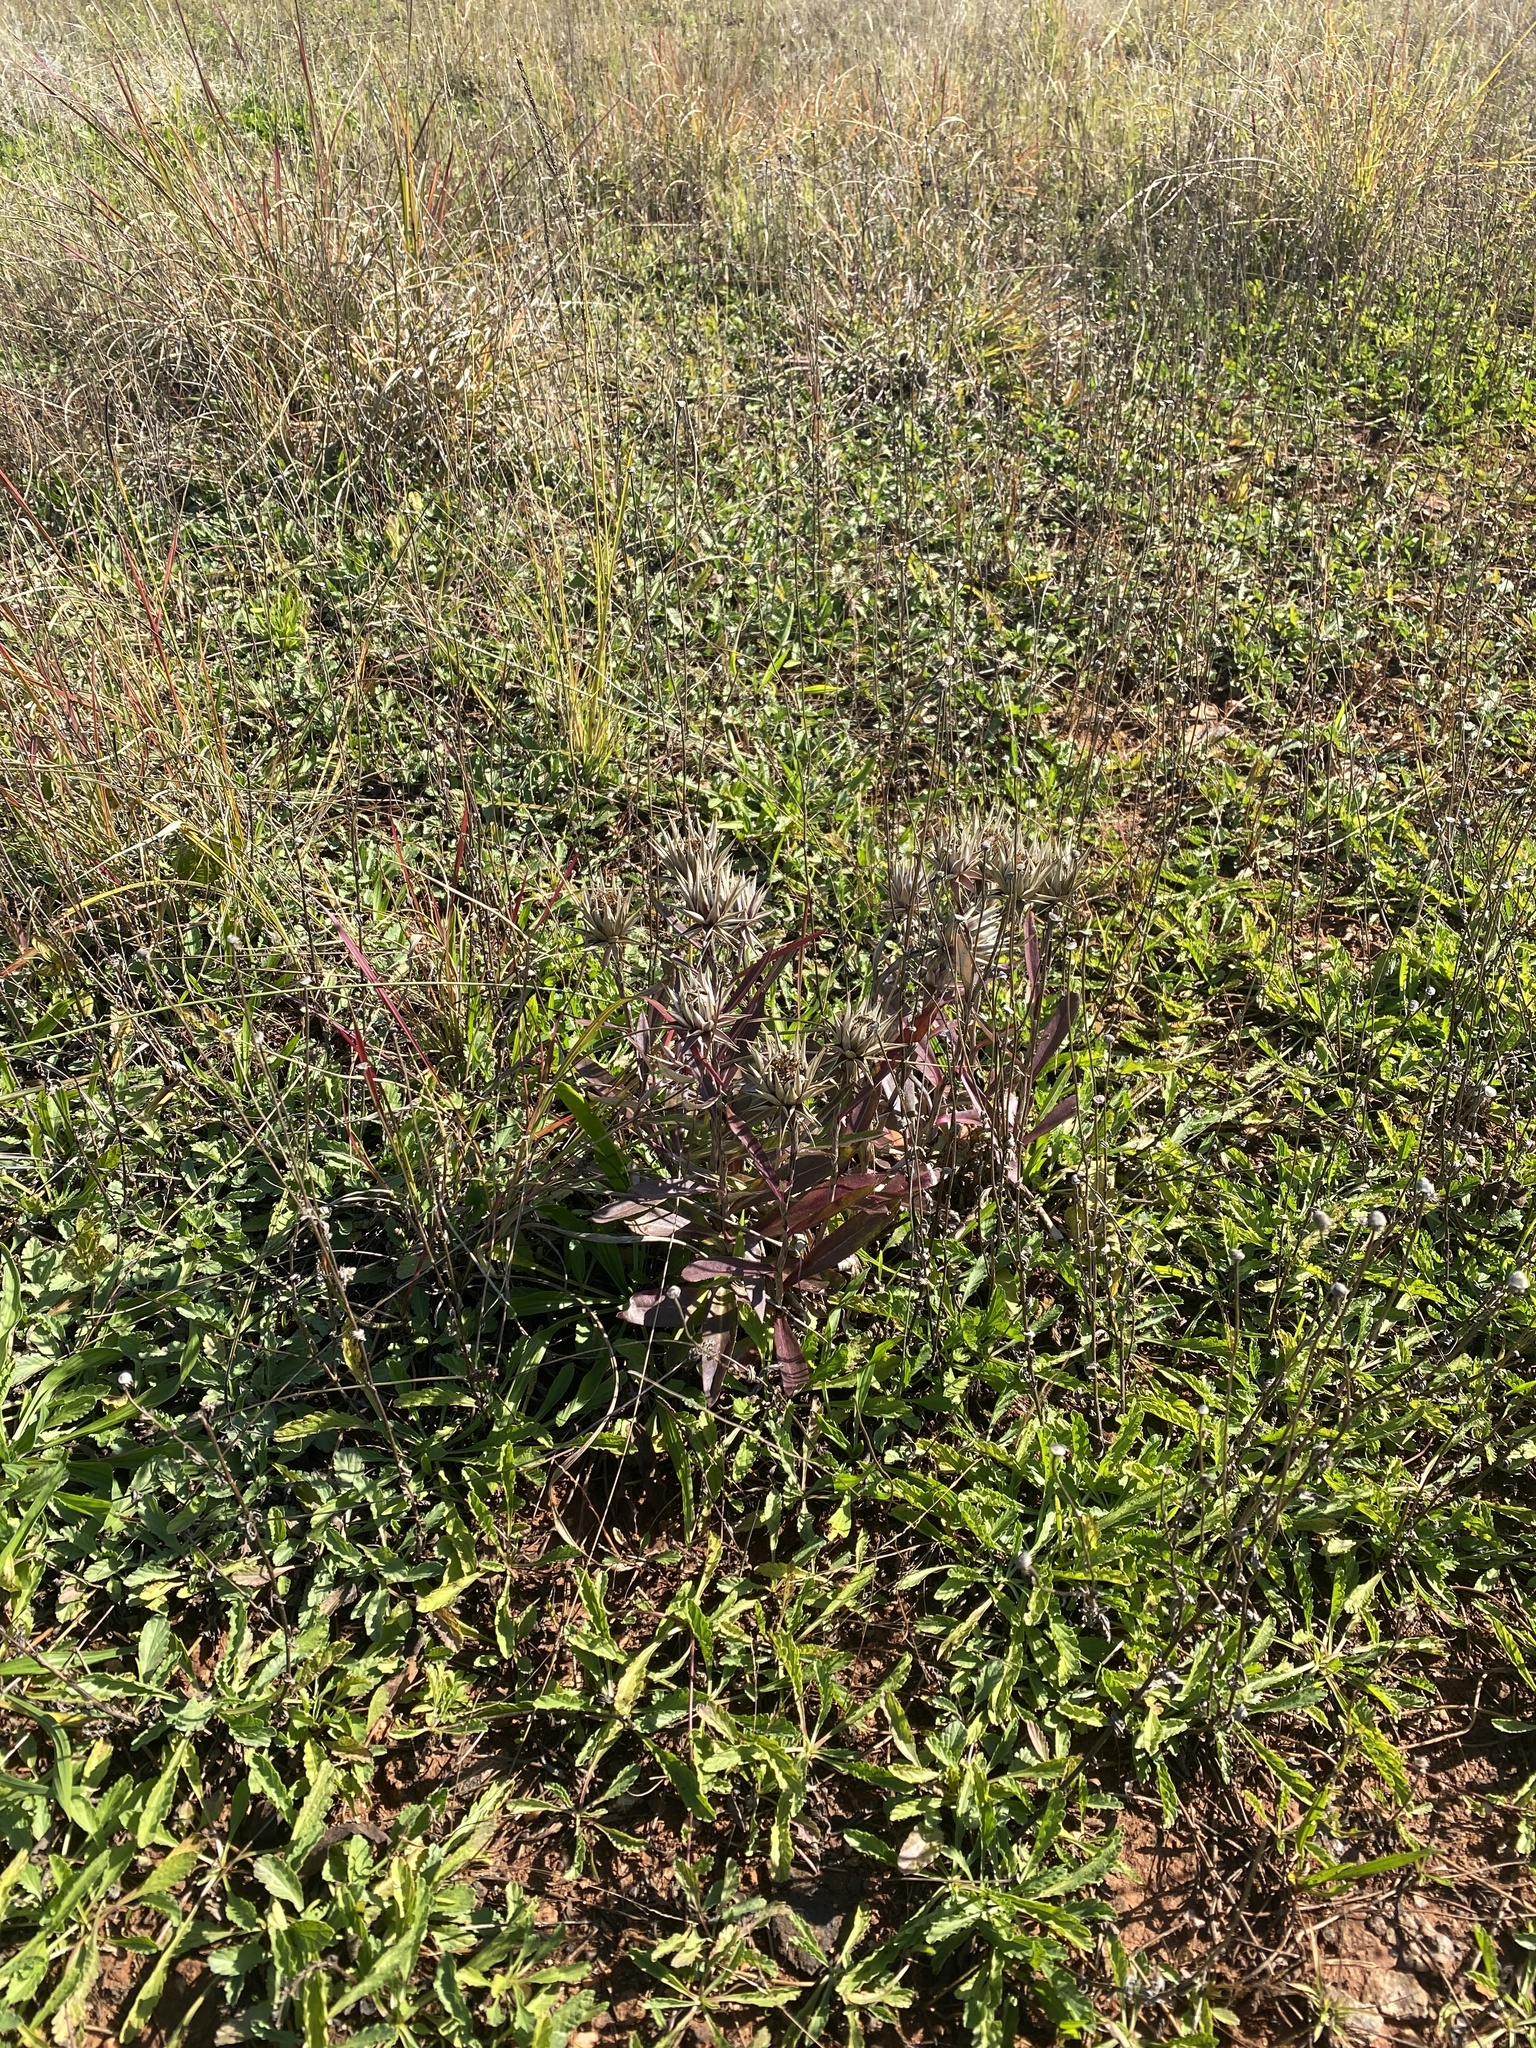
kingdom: Plantae
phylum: Tracheophyta
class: Magnoliopsida
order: Asterales
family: Asteraceae
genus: Macledium
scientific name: Macledium zeyheri
